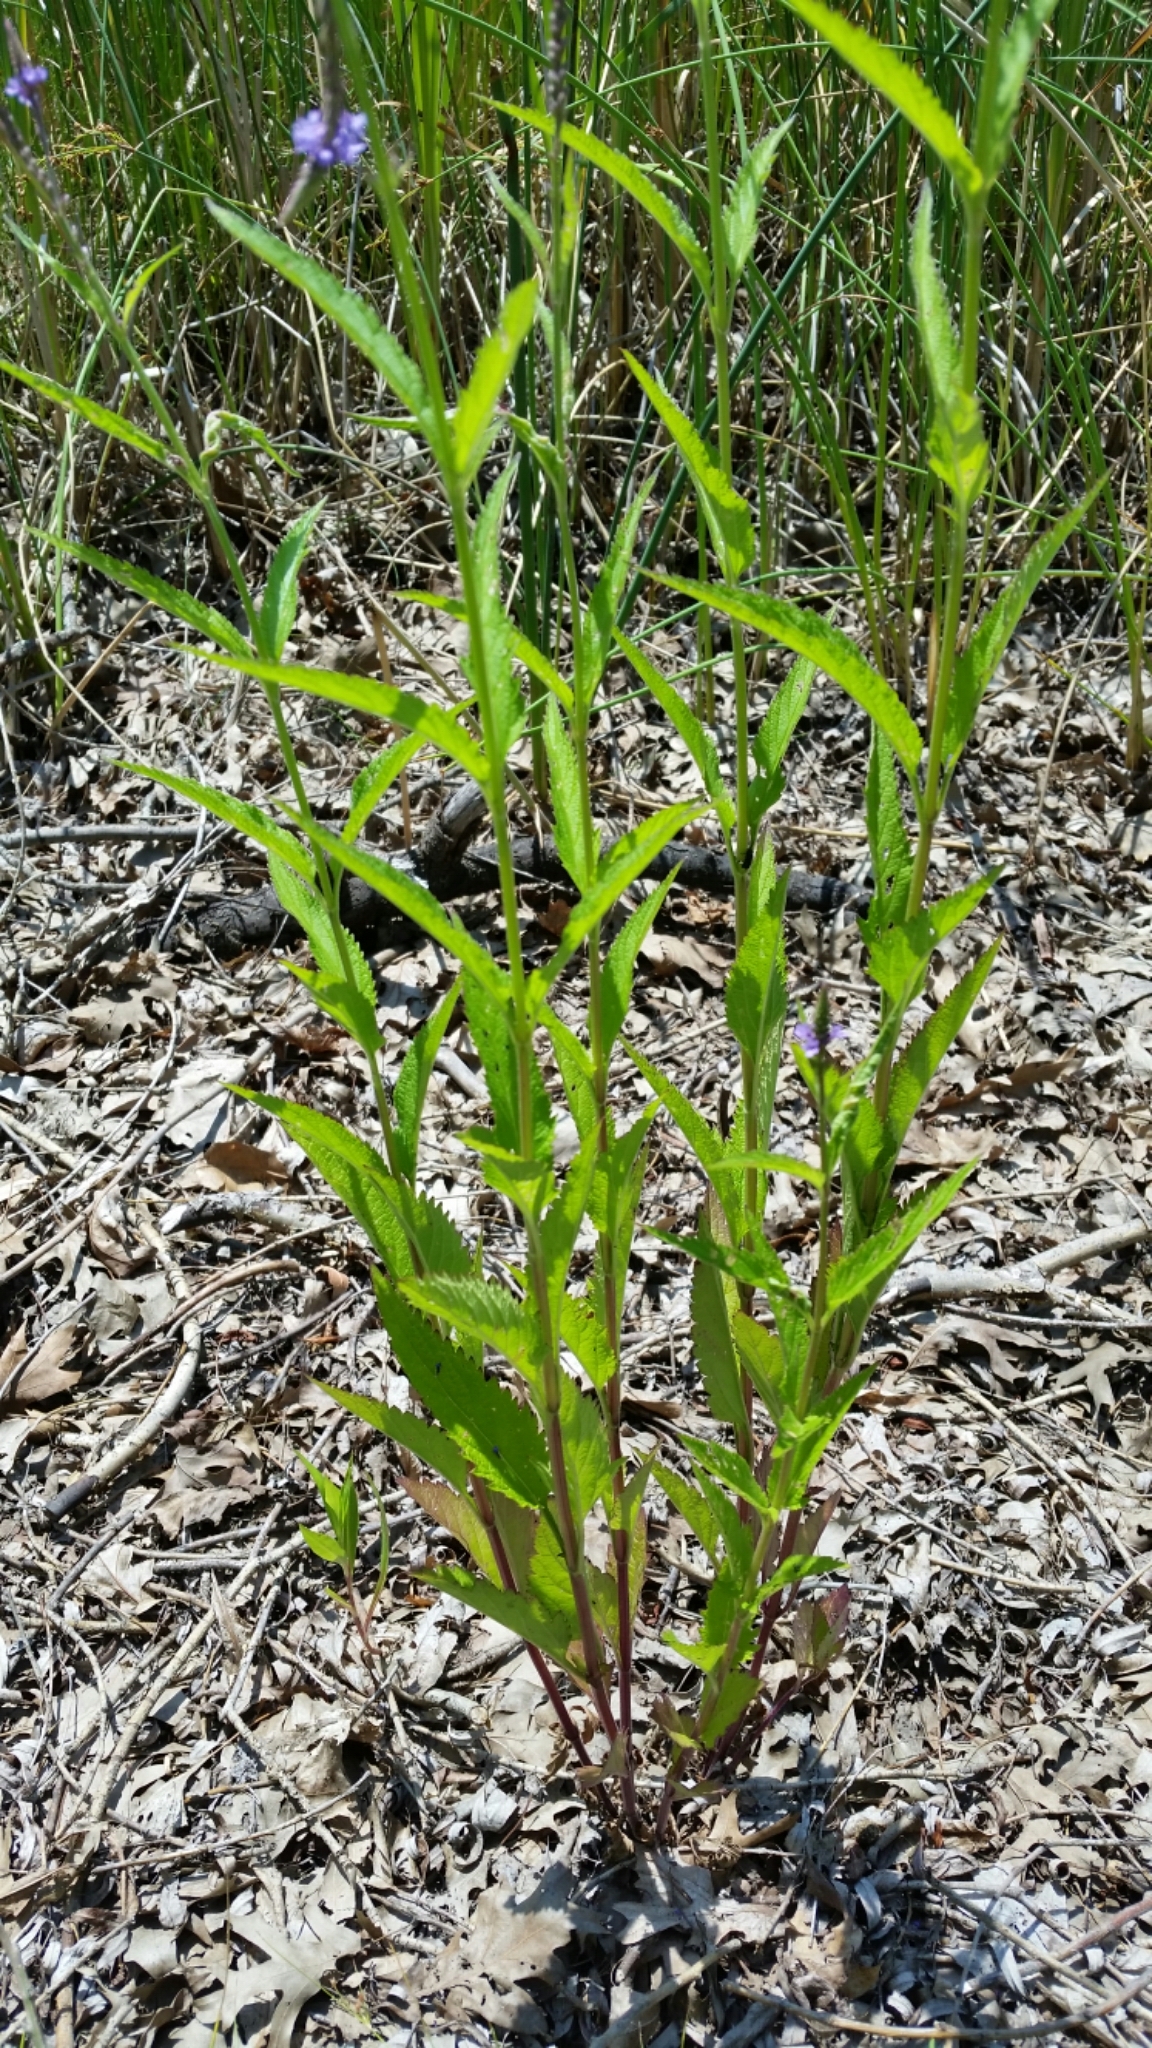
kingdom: Plantae
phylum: Tracheophyta
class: Magnoliopsida
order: Lamiales
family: Verbenaceae
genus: Verbena
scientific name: Verbena hastata
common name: American blue vervain
